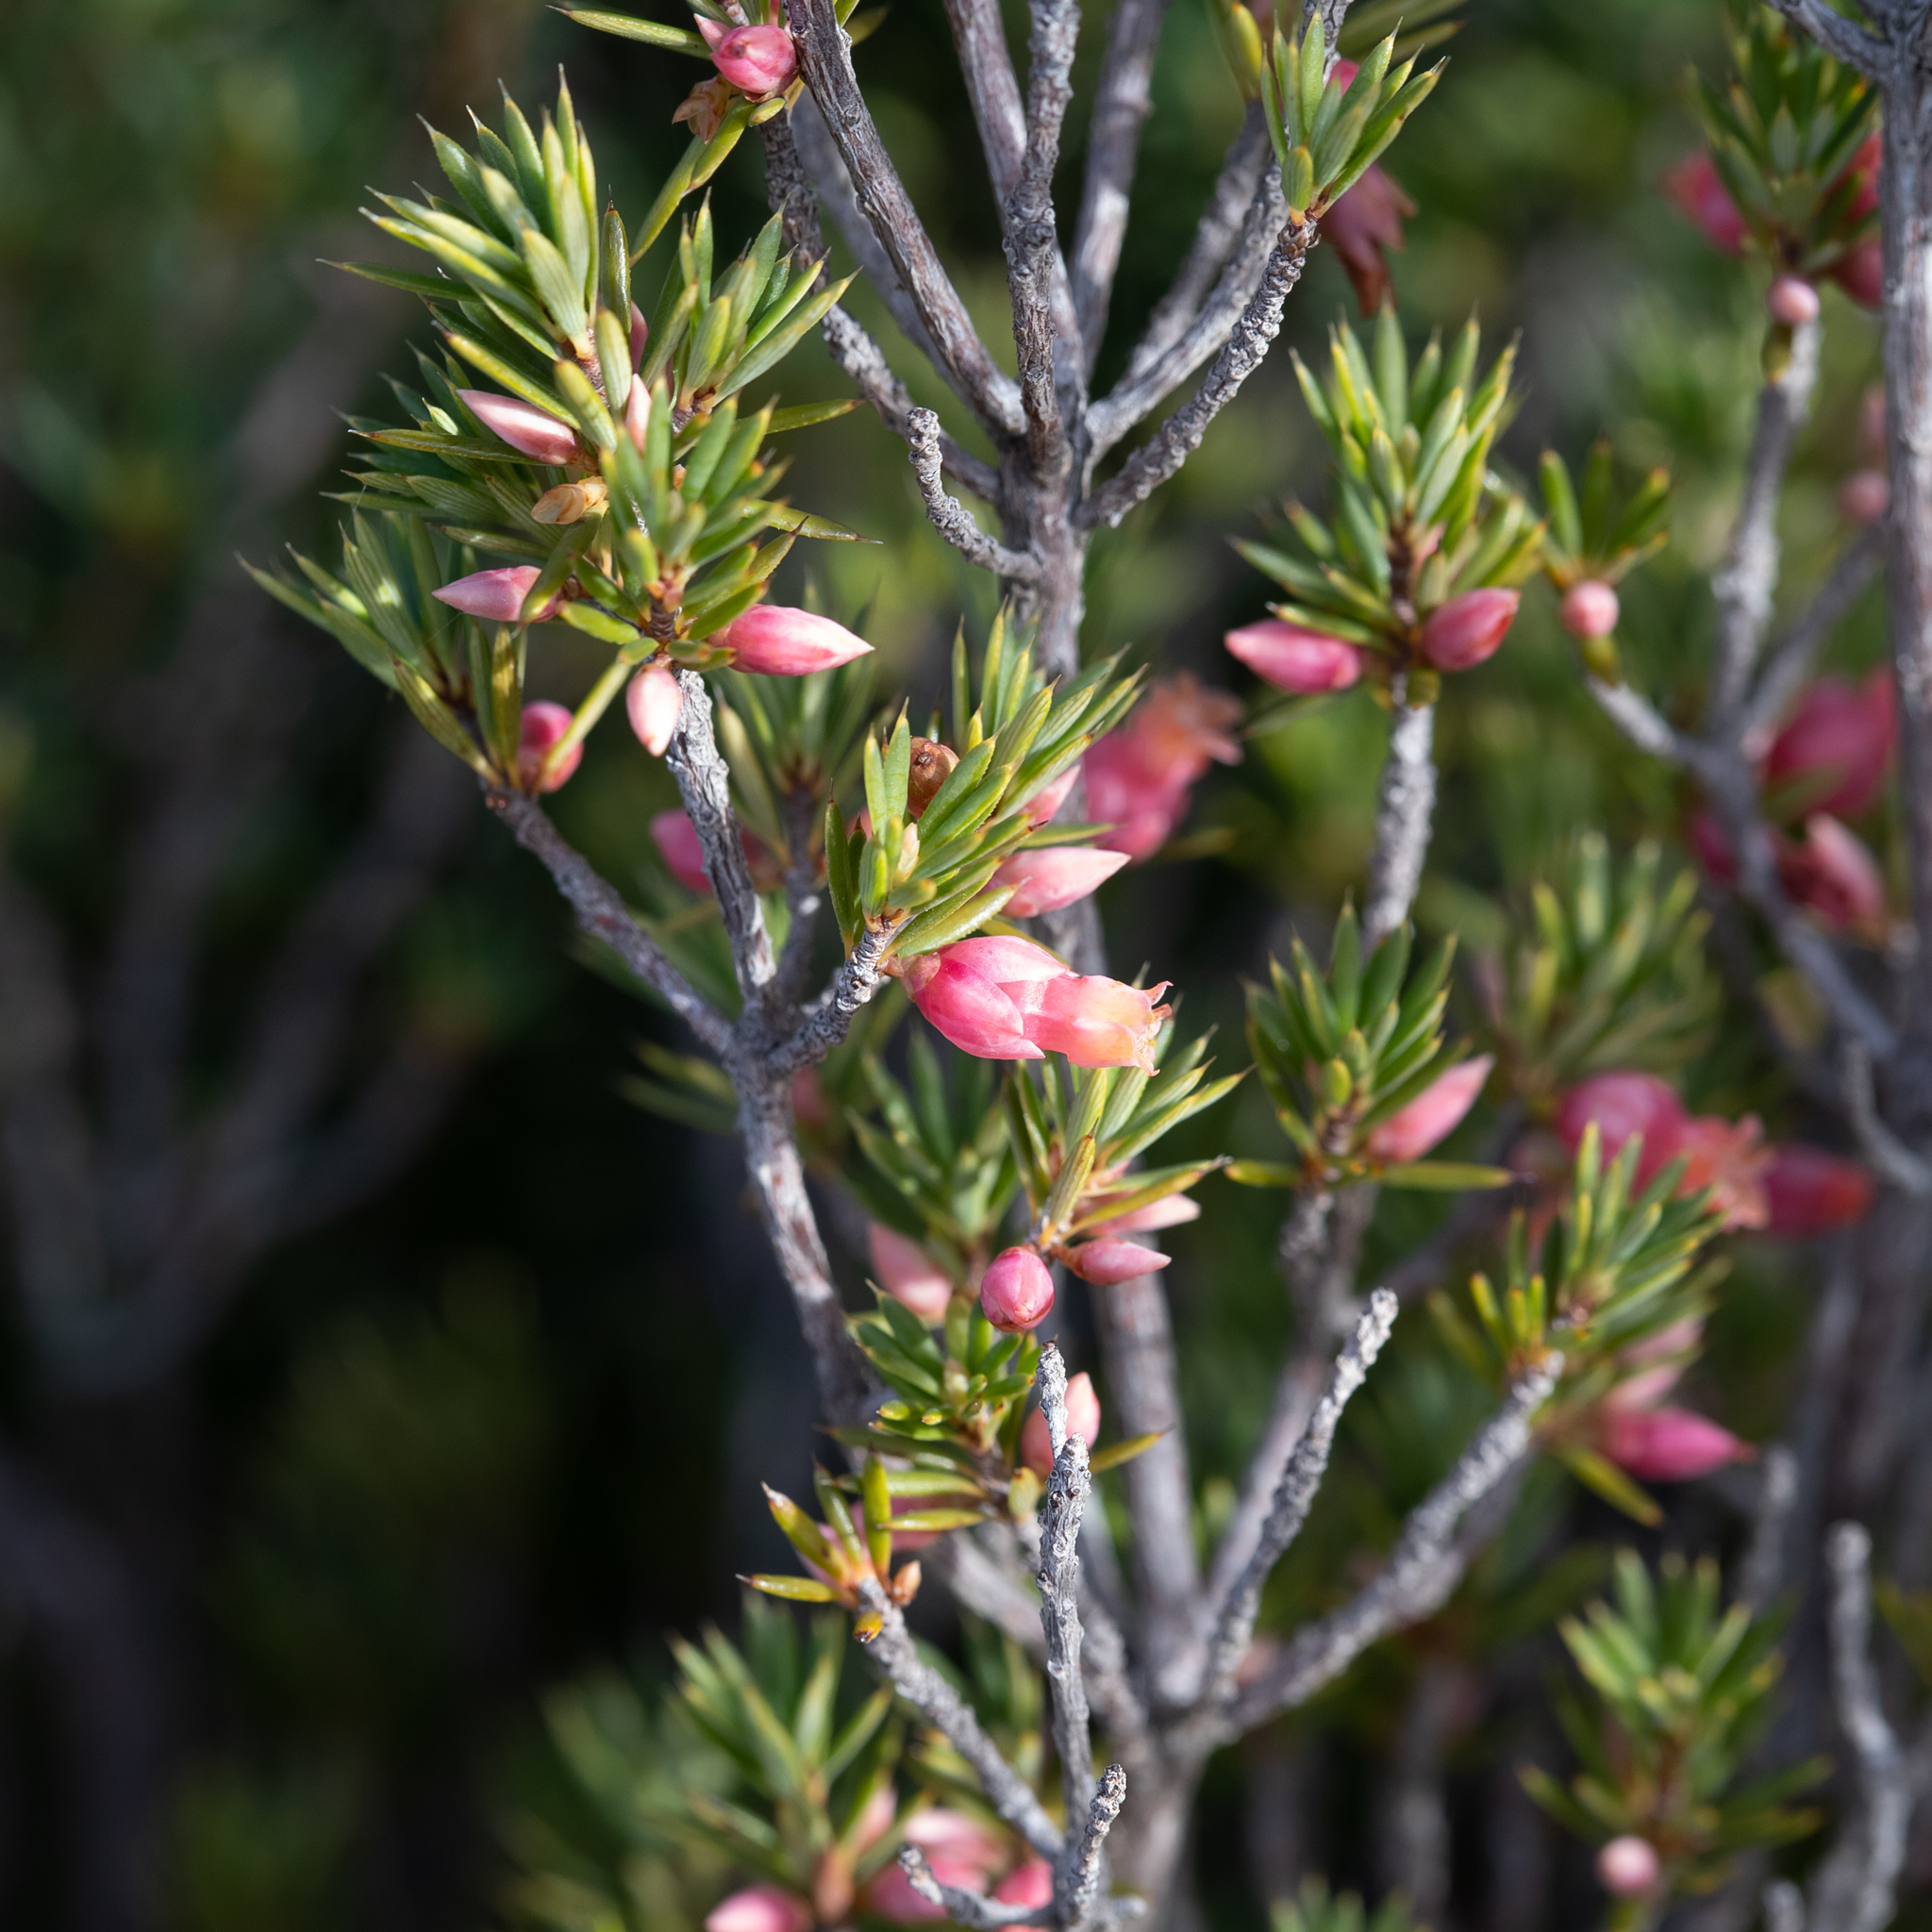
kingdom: Plantae
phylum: Tracheophyta
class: Magnoliopsida
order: Ericales
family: Ericaceae
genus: Brachyloma
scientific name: Brachyloma ericoides
